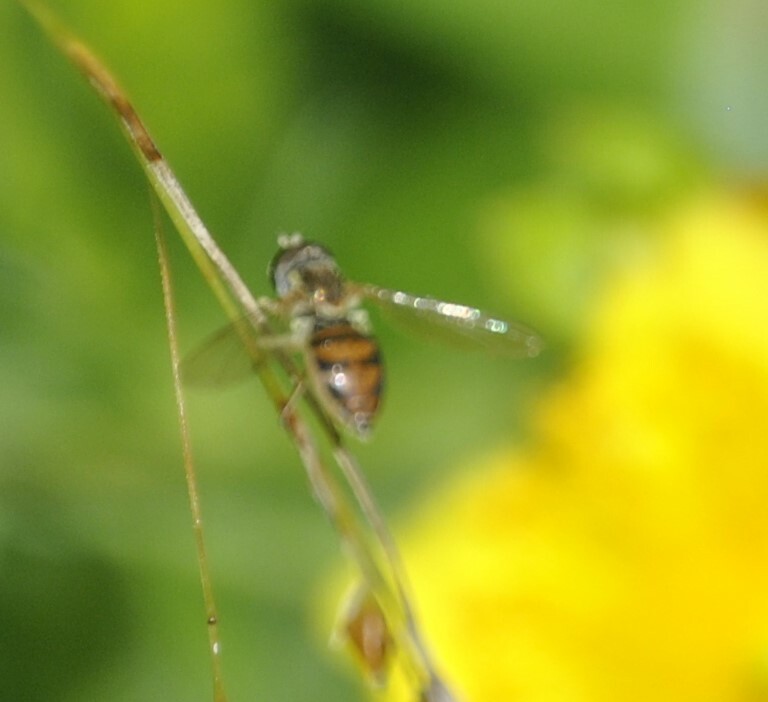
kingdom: Animalia
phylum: Arthropoda
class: Insecta
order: Diptera
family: Syrphidae
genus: Toxomerus
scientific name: Toxomerus marginatus
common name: Syrphid fly
